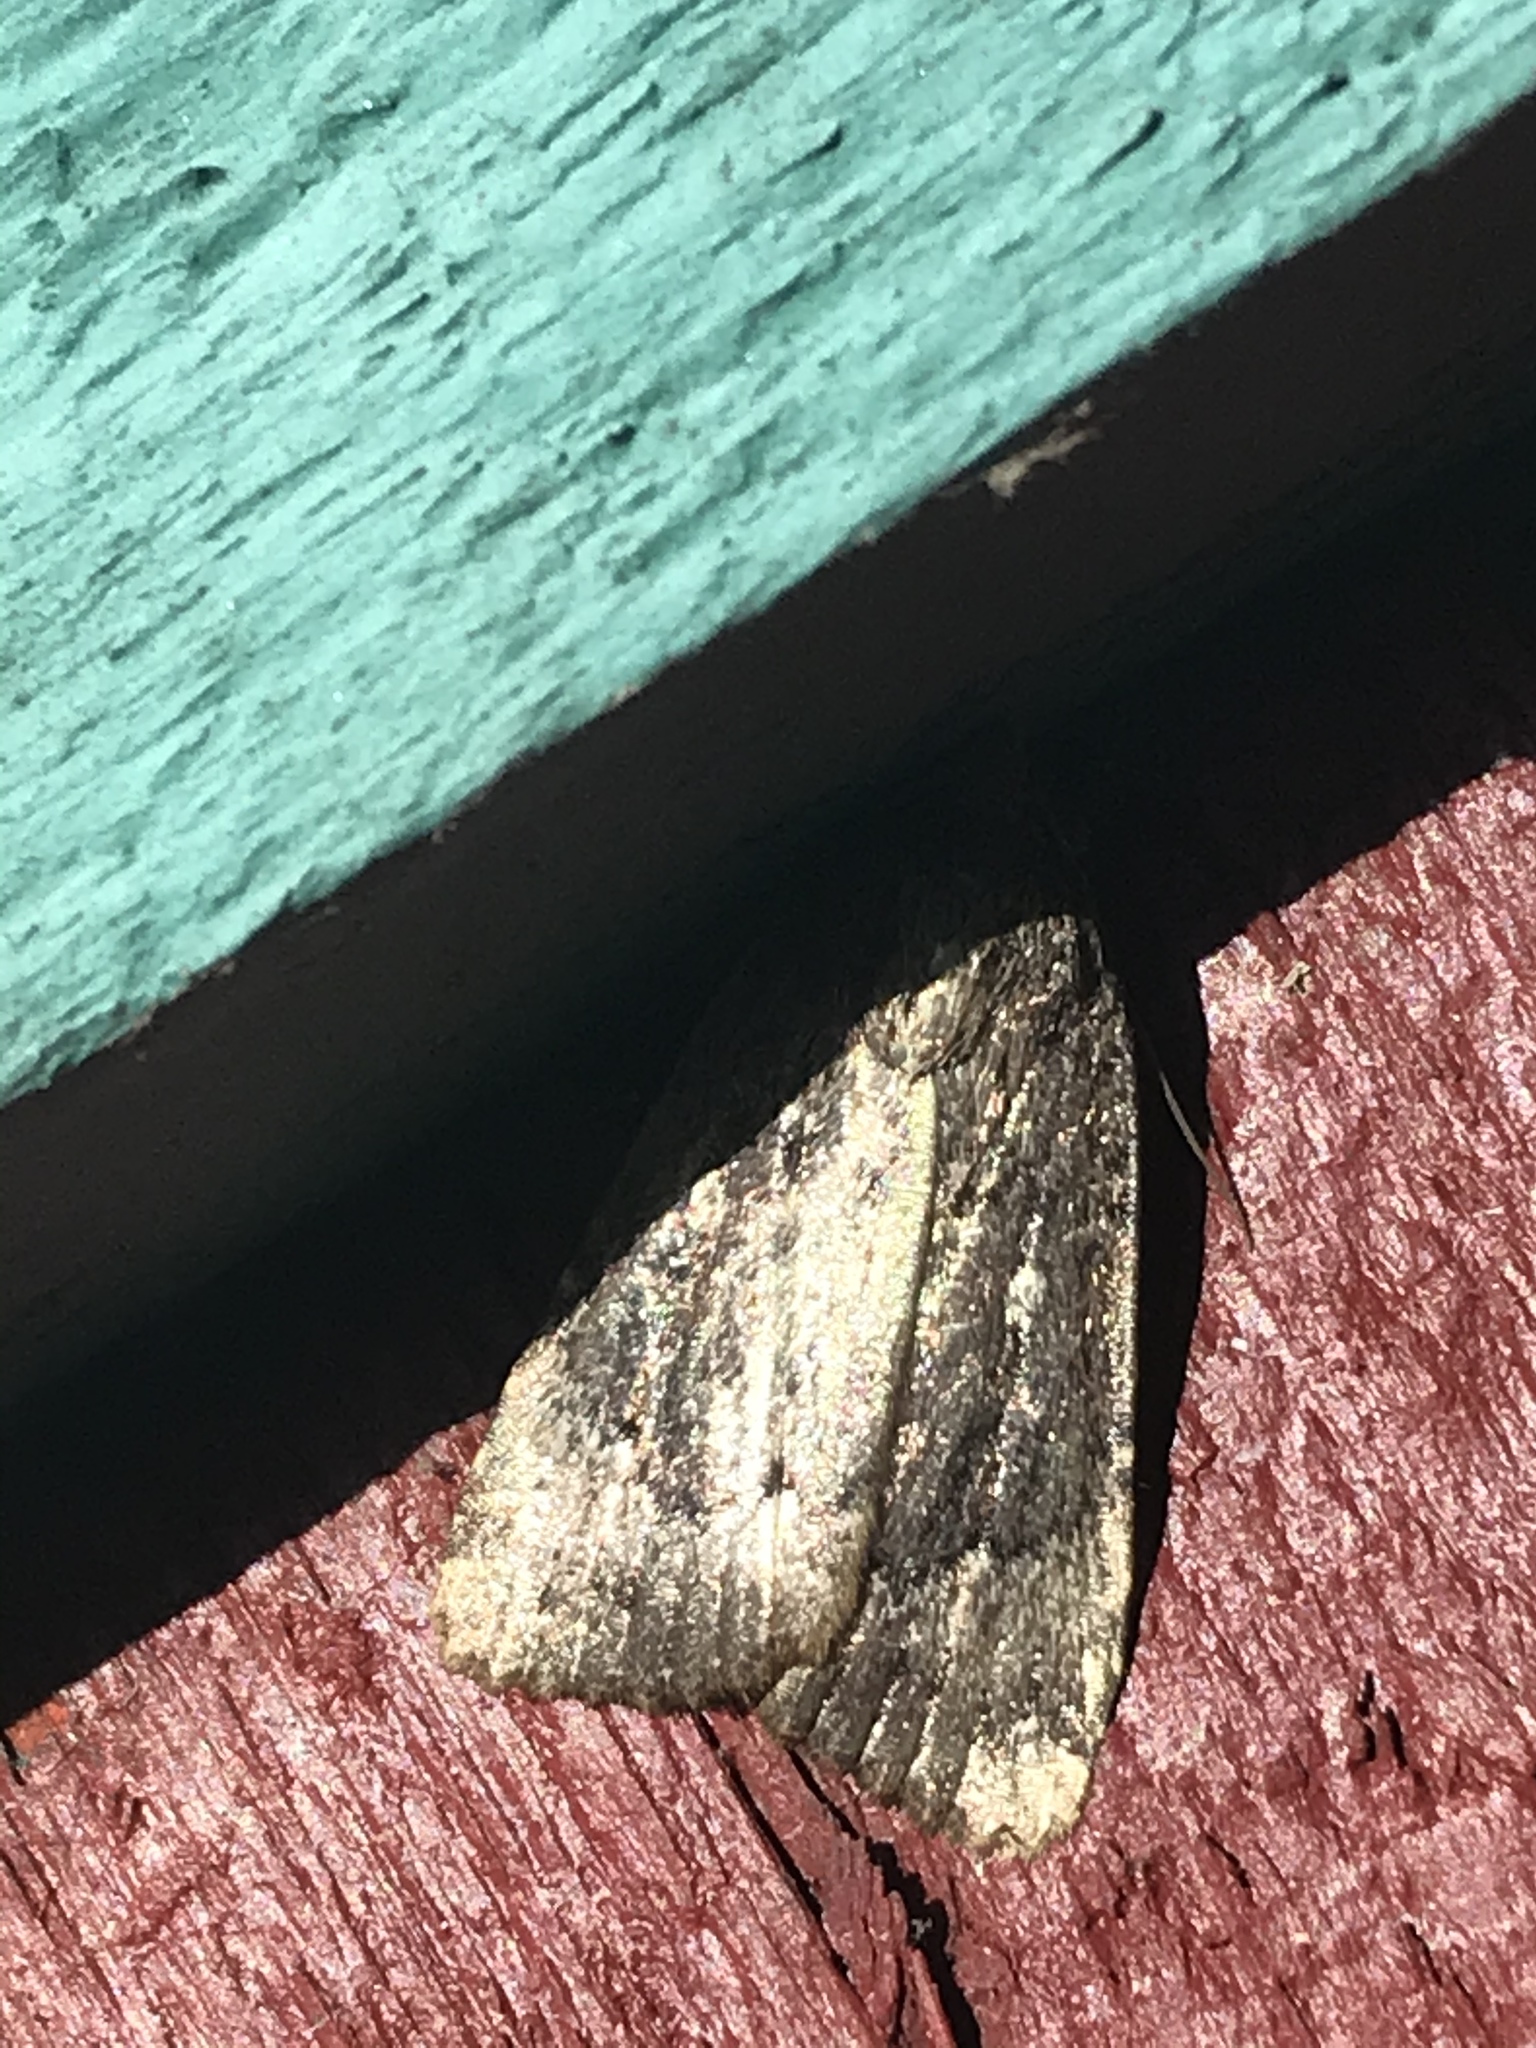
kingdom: Animalia
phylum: Arthropoda
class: Insecta
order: Lepidoptera
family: Noctuidae
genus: Amphipyra
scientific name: Amphipyra pyramidoides
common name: American copper underwing
